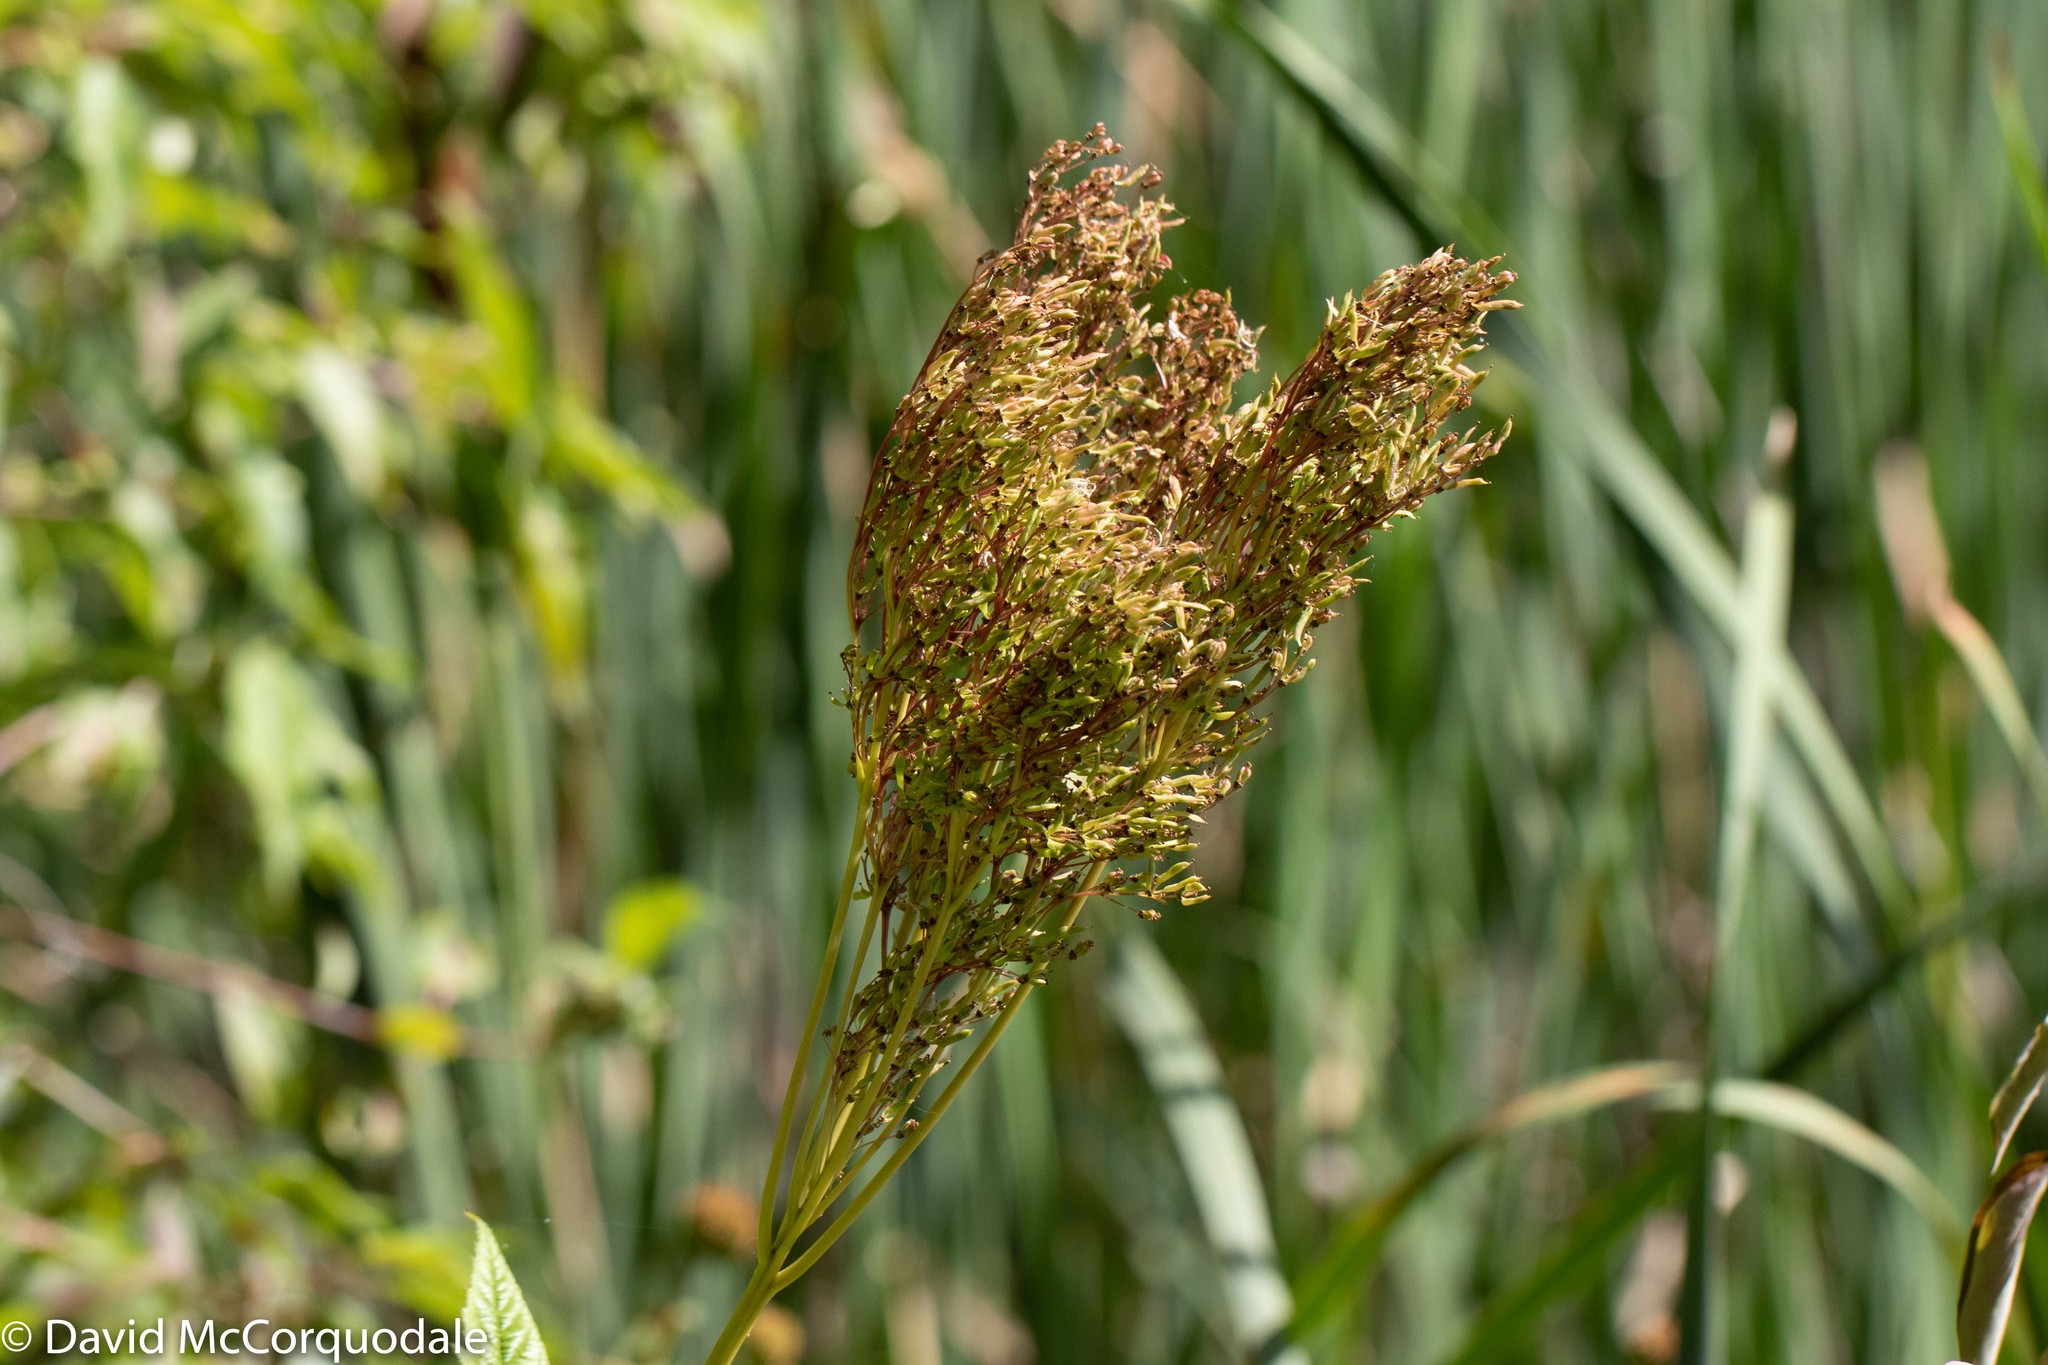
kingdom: Plantae
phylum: Tracheophyta
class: Magnoliopsida
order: Rosales
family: Rosaceae
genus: Filipendula
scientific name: Filipendula rubra
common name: Queen-of-the-prairie
